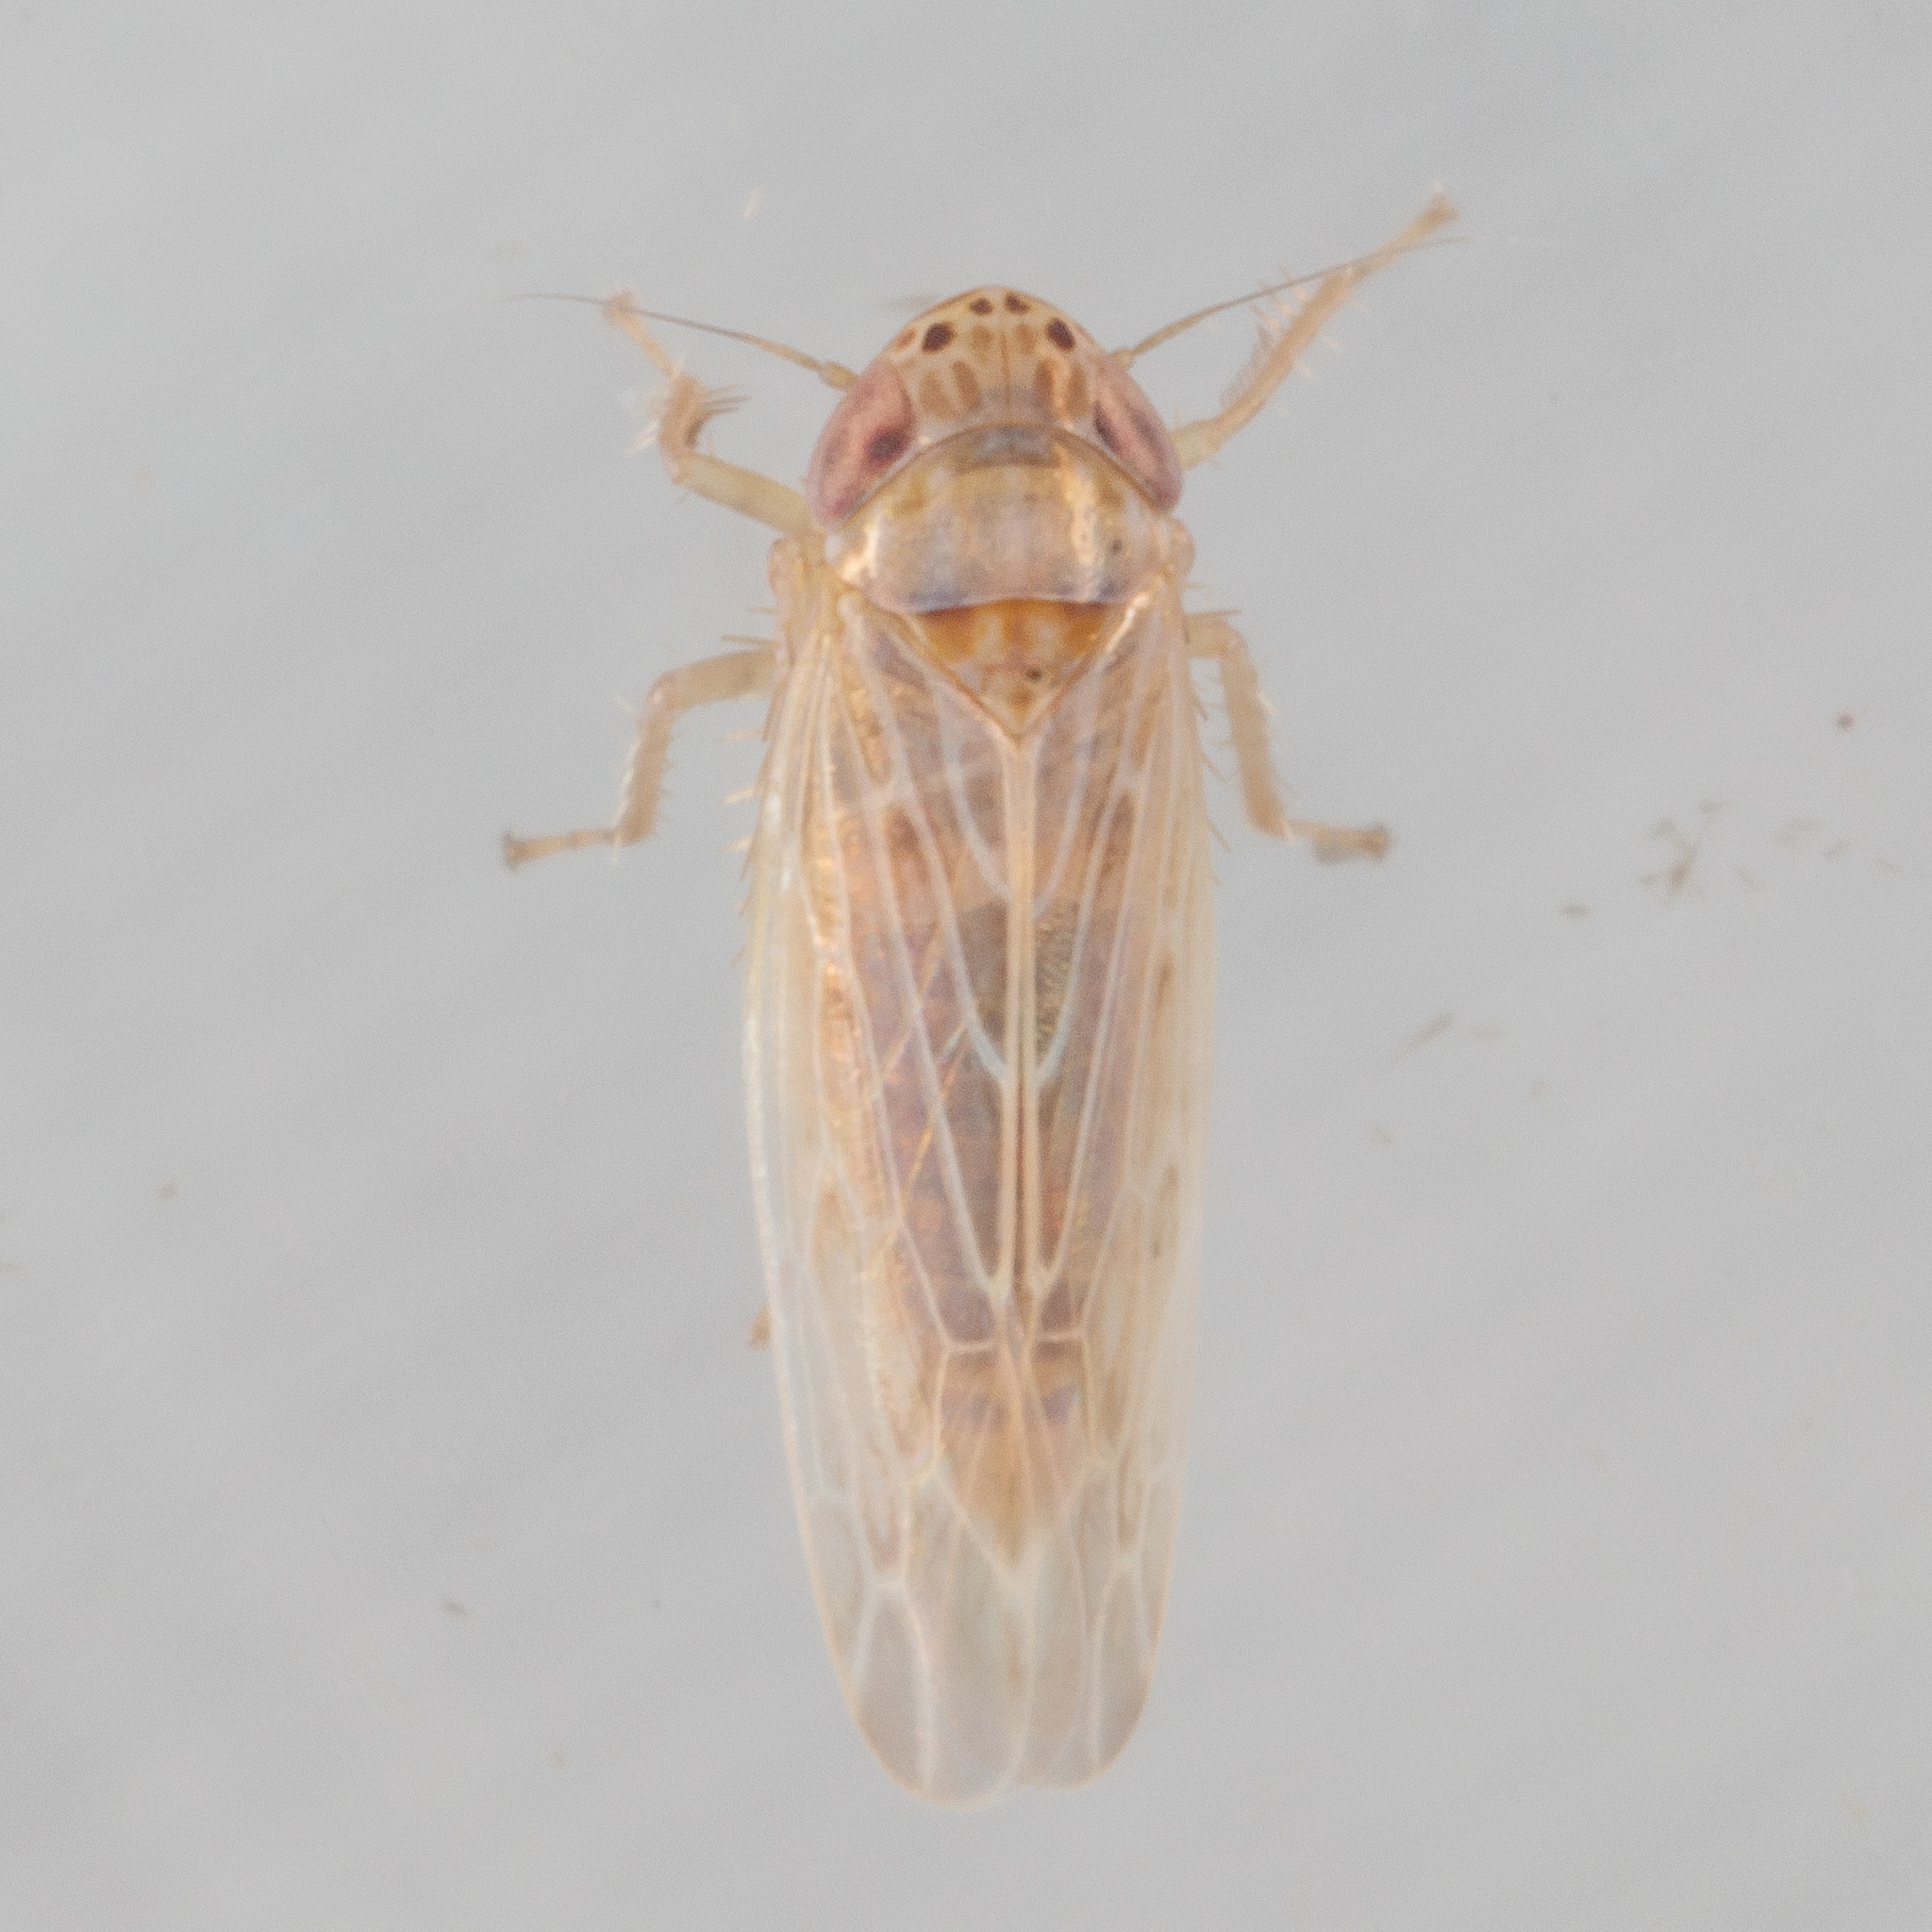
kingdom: Animalia
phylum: Arthropoda
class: Insecta
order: Hemiptera
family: Cicadellidae
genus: Graminella
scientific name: Graminella sonora
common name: Lesser lawn leafhopper
